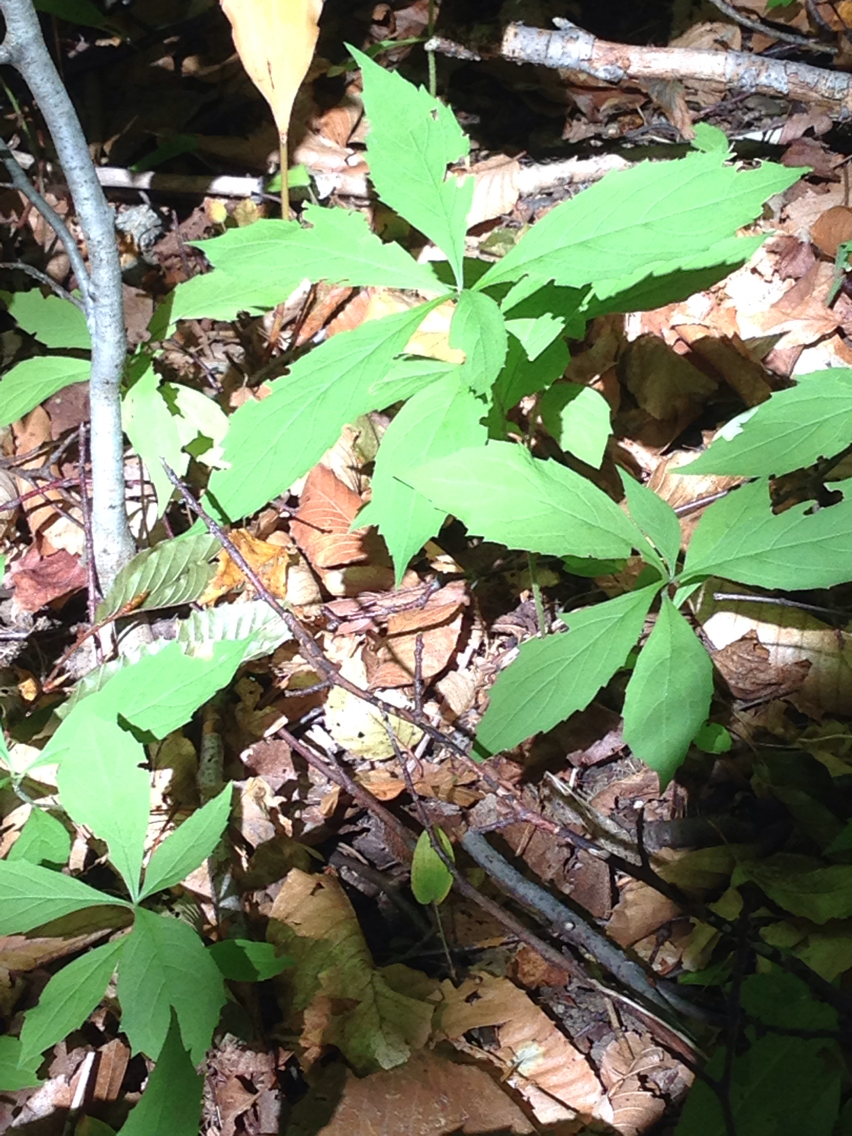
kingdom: Plantae
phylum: Tracheophyta
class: Magnoliopsida
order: Asterales
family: Asteraceae
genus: Oclemena
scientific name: Oclemena acuminata
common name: Mountain aster
